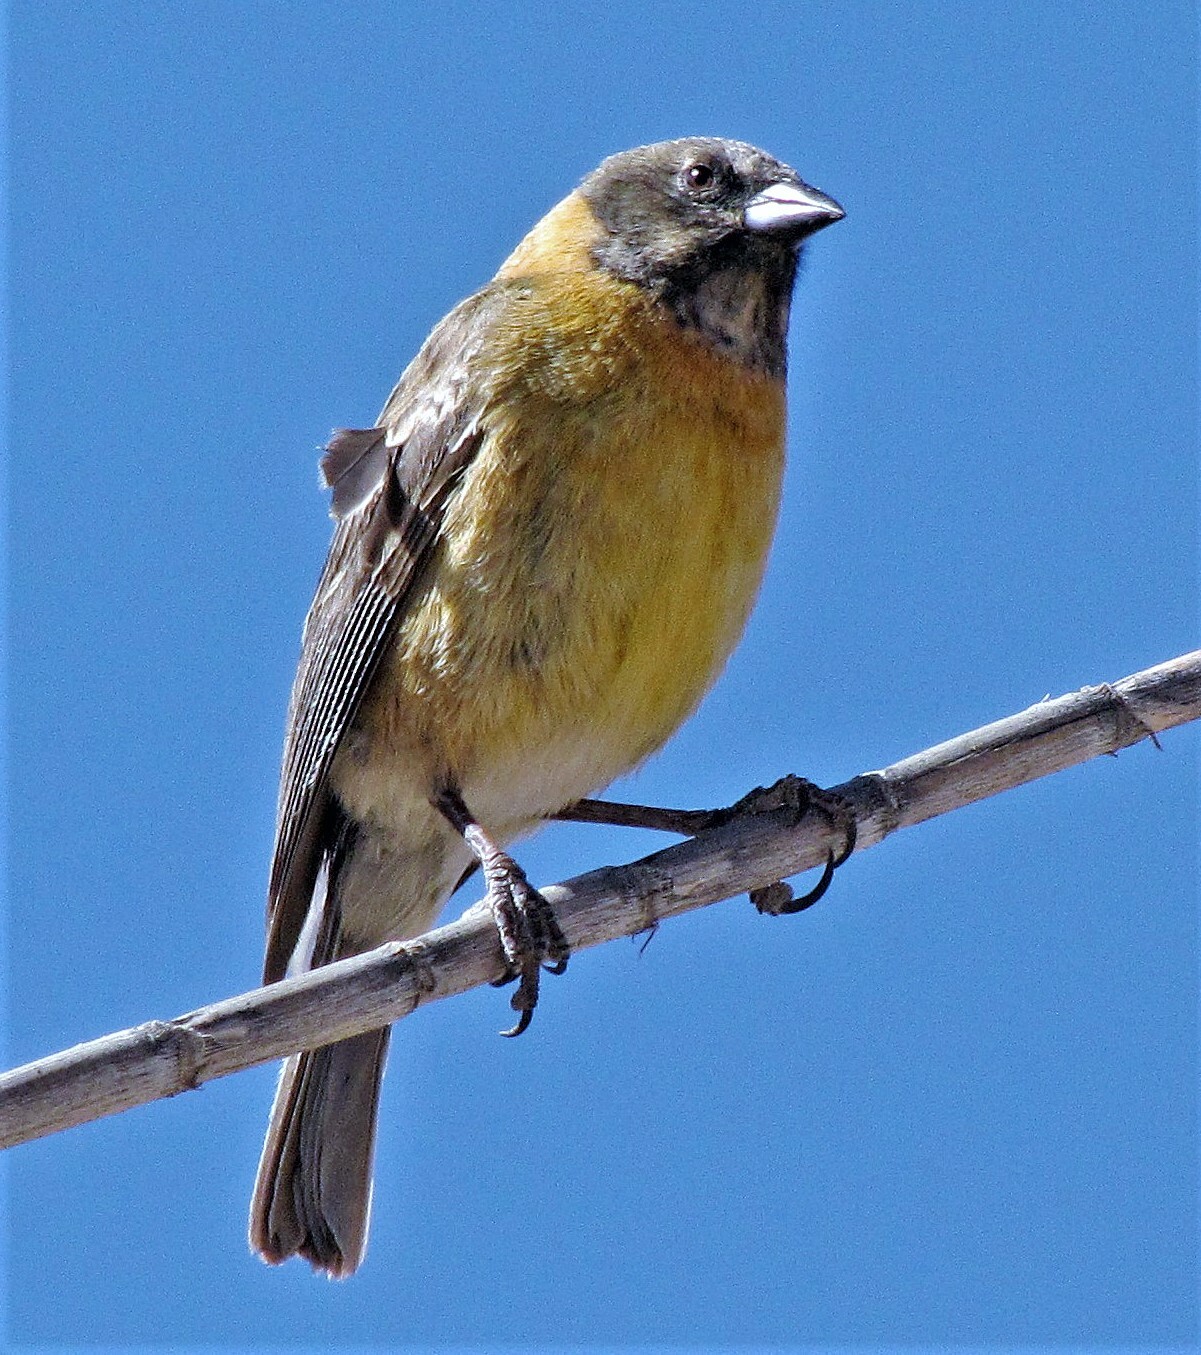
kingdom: Animalia
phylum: Chordata
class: Aves
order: Passeriformes
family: Thraupidae
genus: Phrygilus
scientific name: Phrygilus atriceps
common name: Black-hooded sierra finch
